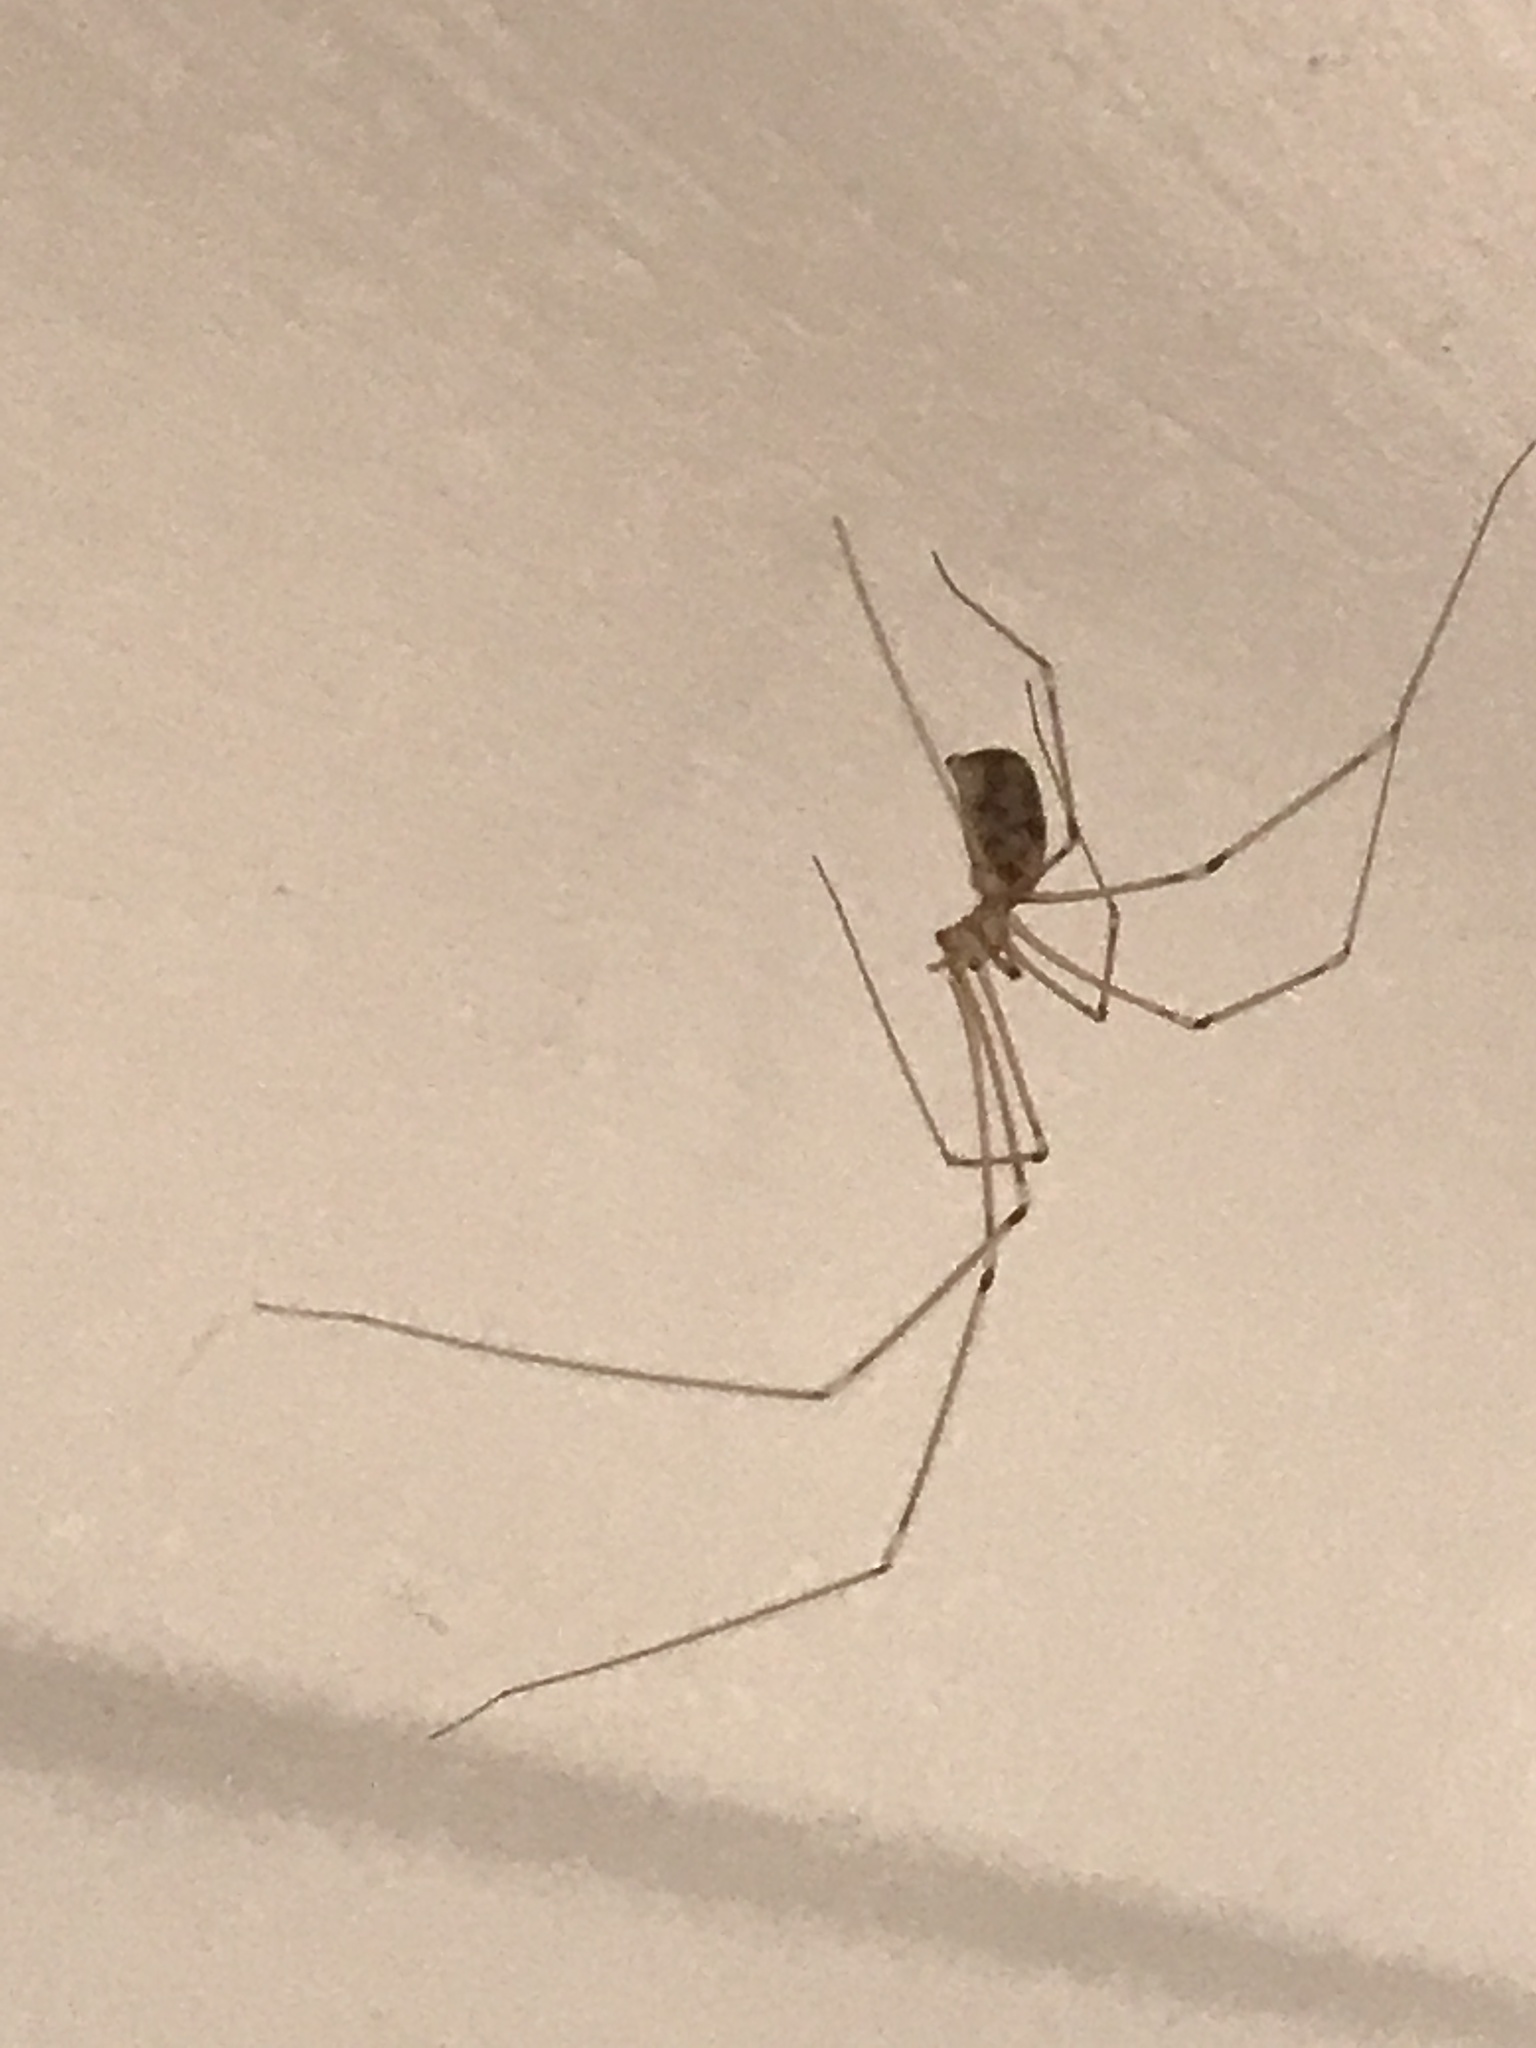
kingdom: Animalia
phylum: Arthropoda
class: Arachnida
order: Araneae
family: Pholcidae
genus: Pholcus
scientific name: Pholcus phalangioides
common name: Longbodied cellar spider
